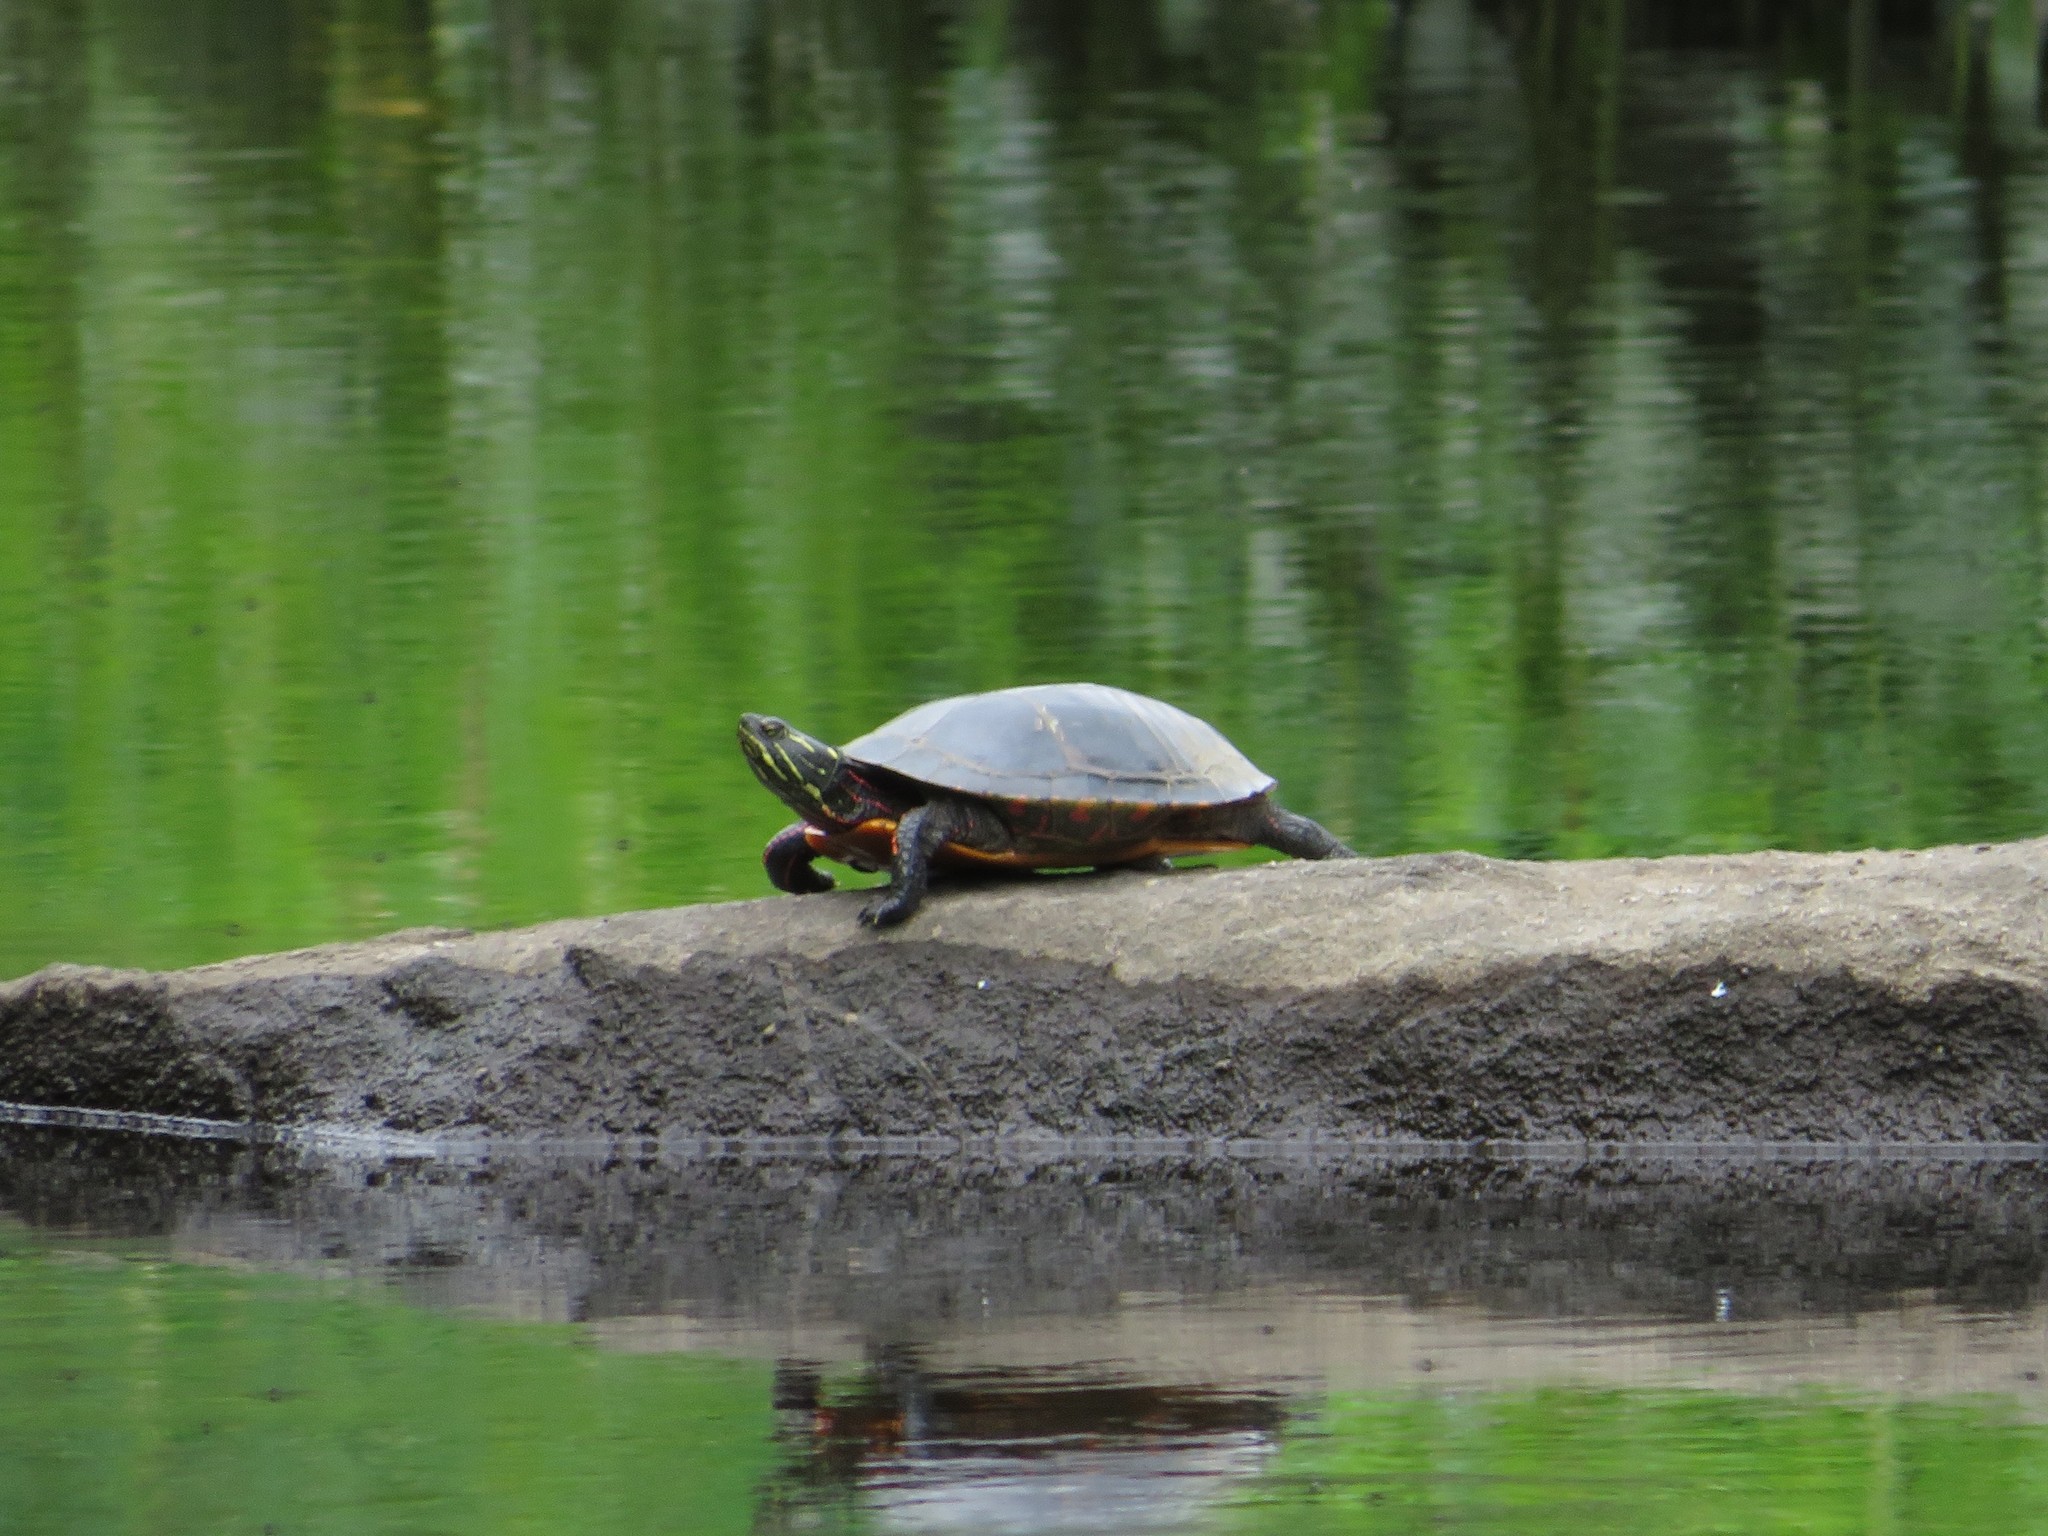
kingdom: Animalia
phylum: Chordata
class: Testudines
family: Emydidae
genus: Chrysemys
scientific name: Chrysemys picta
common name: Painted turtle
